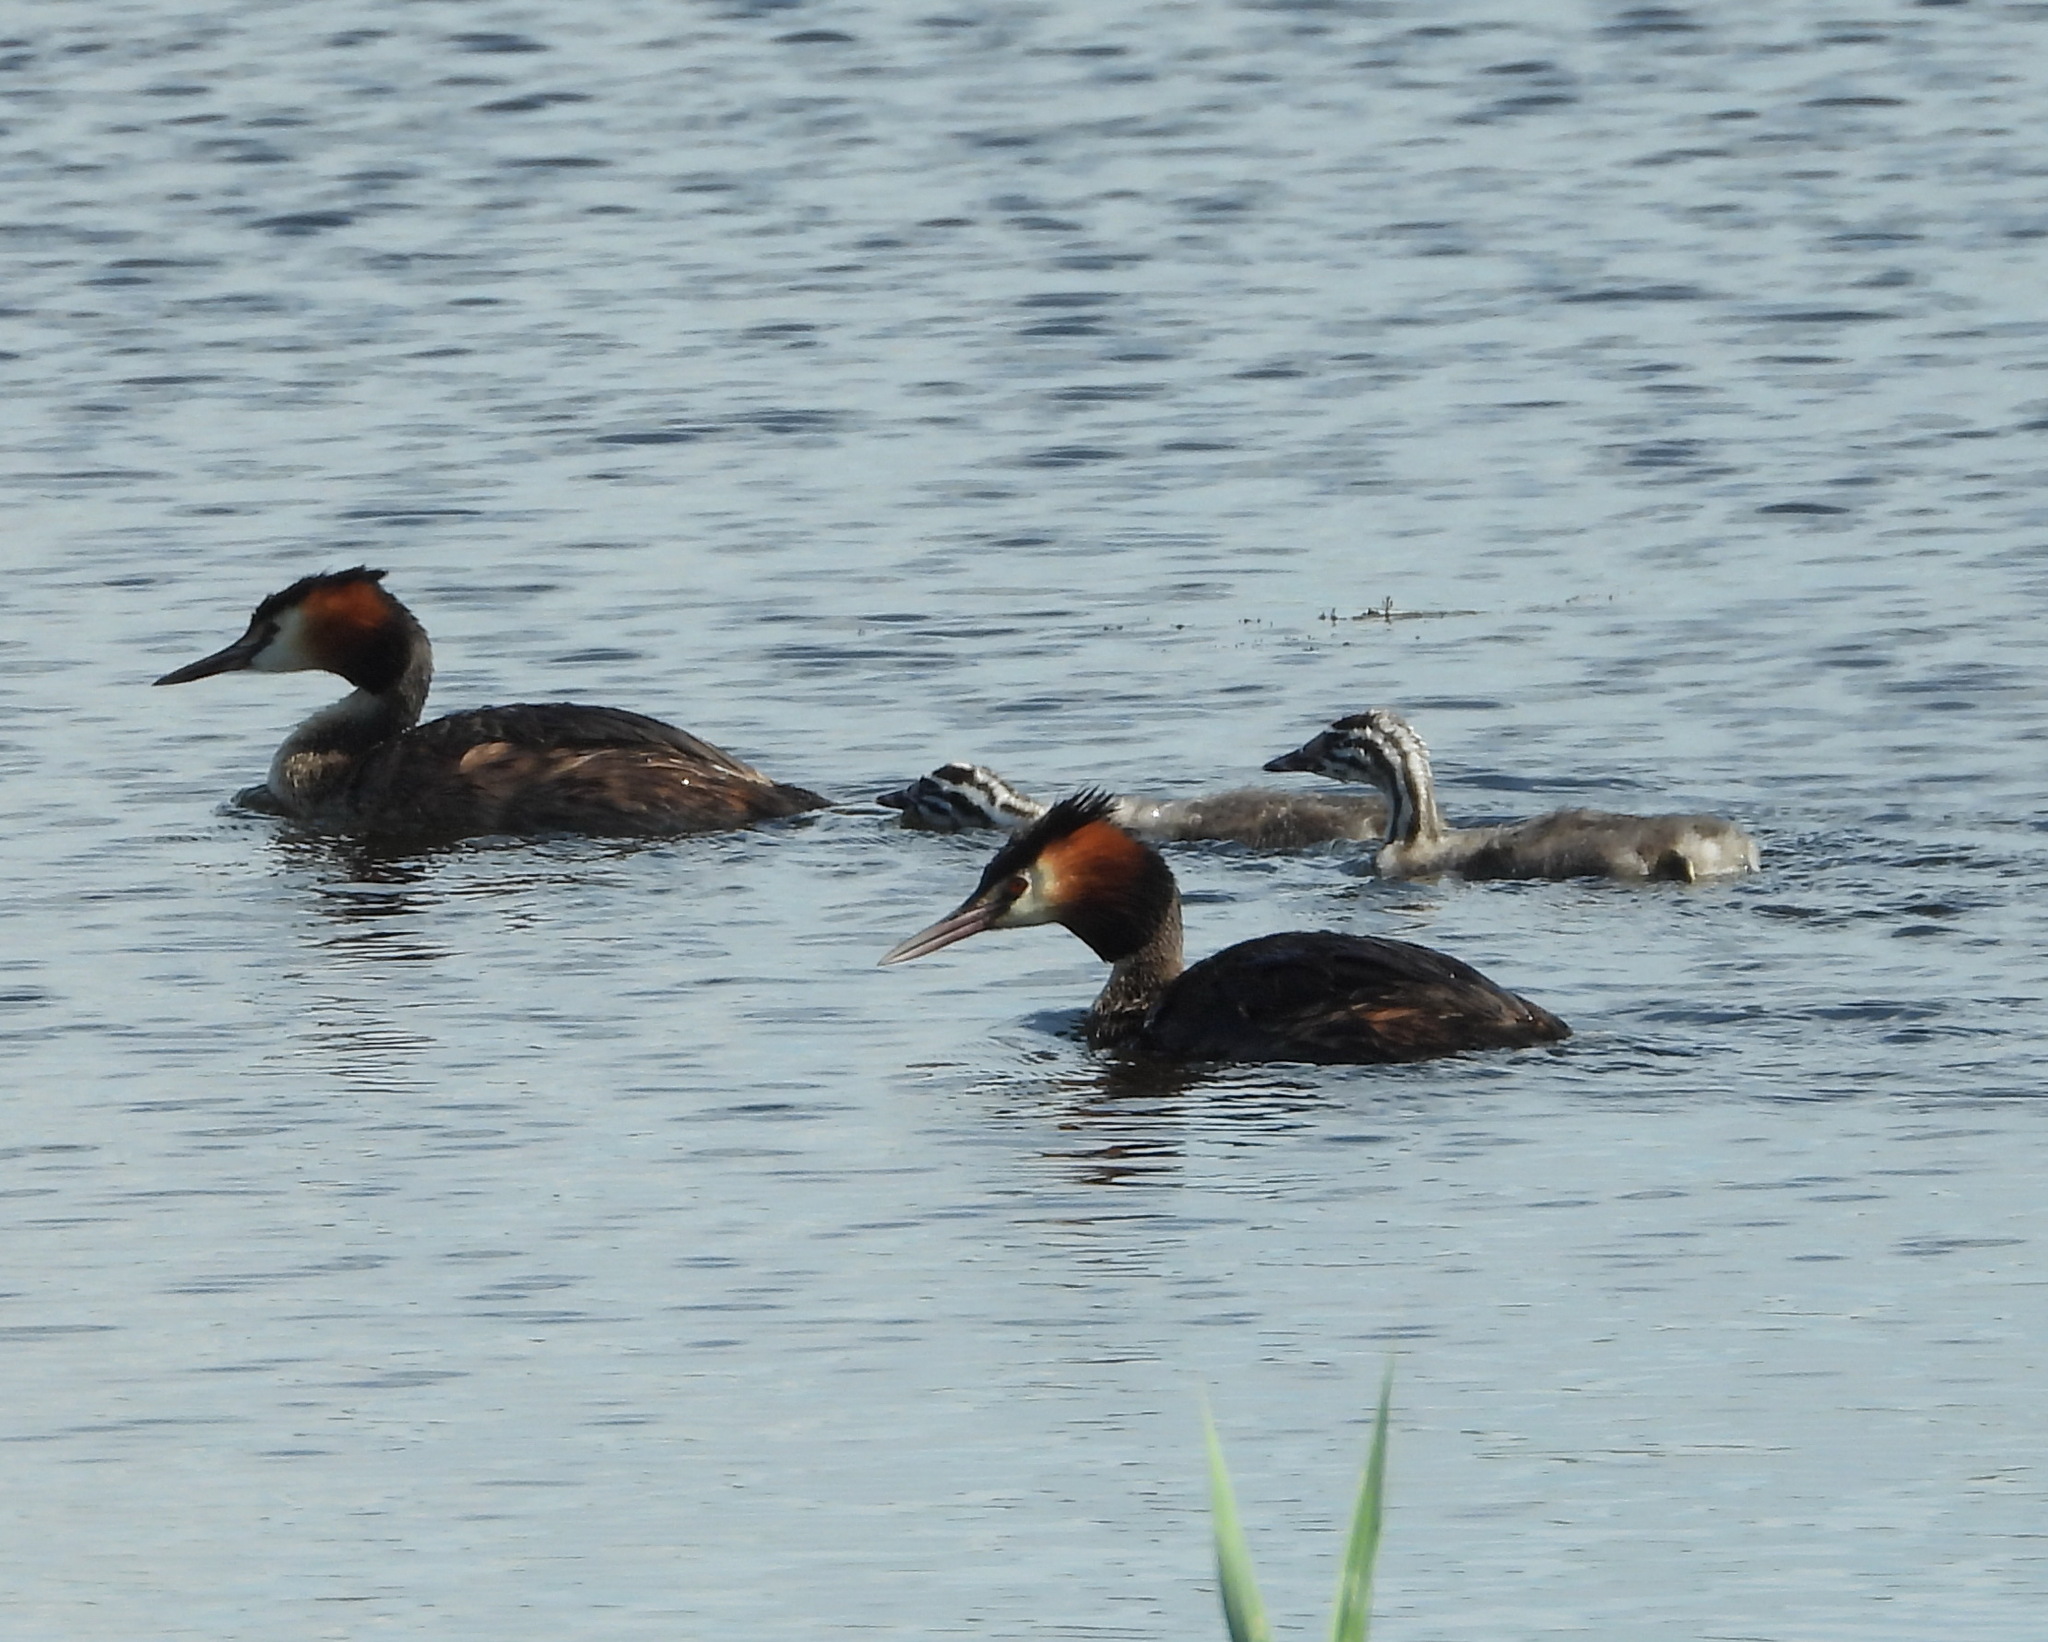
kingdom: Animalia
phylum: Chordata
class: Aves
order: Podicipediformes
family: Podicipedidae
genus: Podiceps
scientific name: Podiceps cristatus
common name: Great crested grebe
